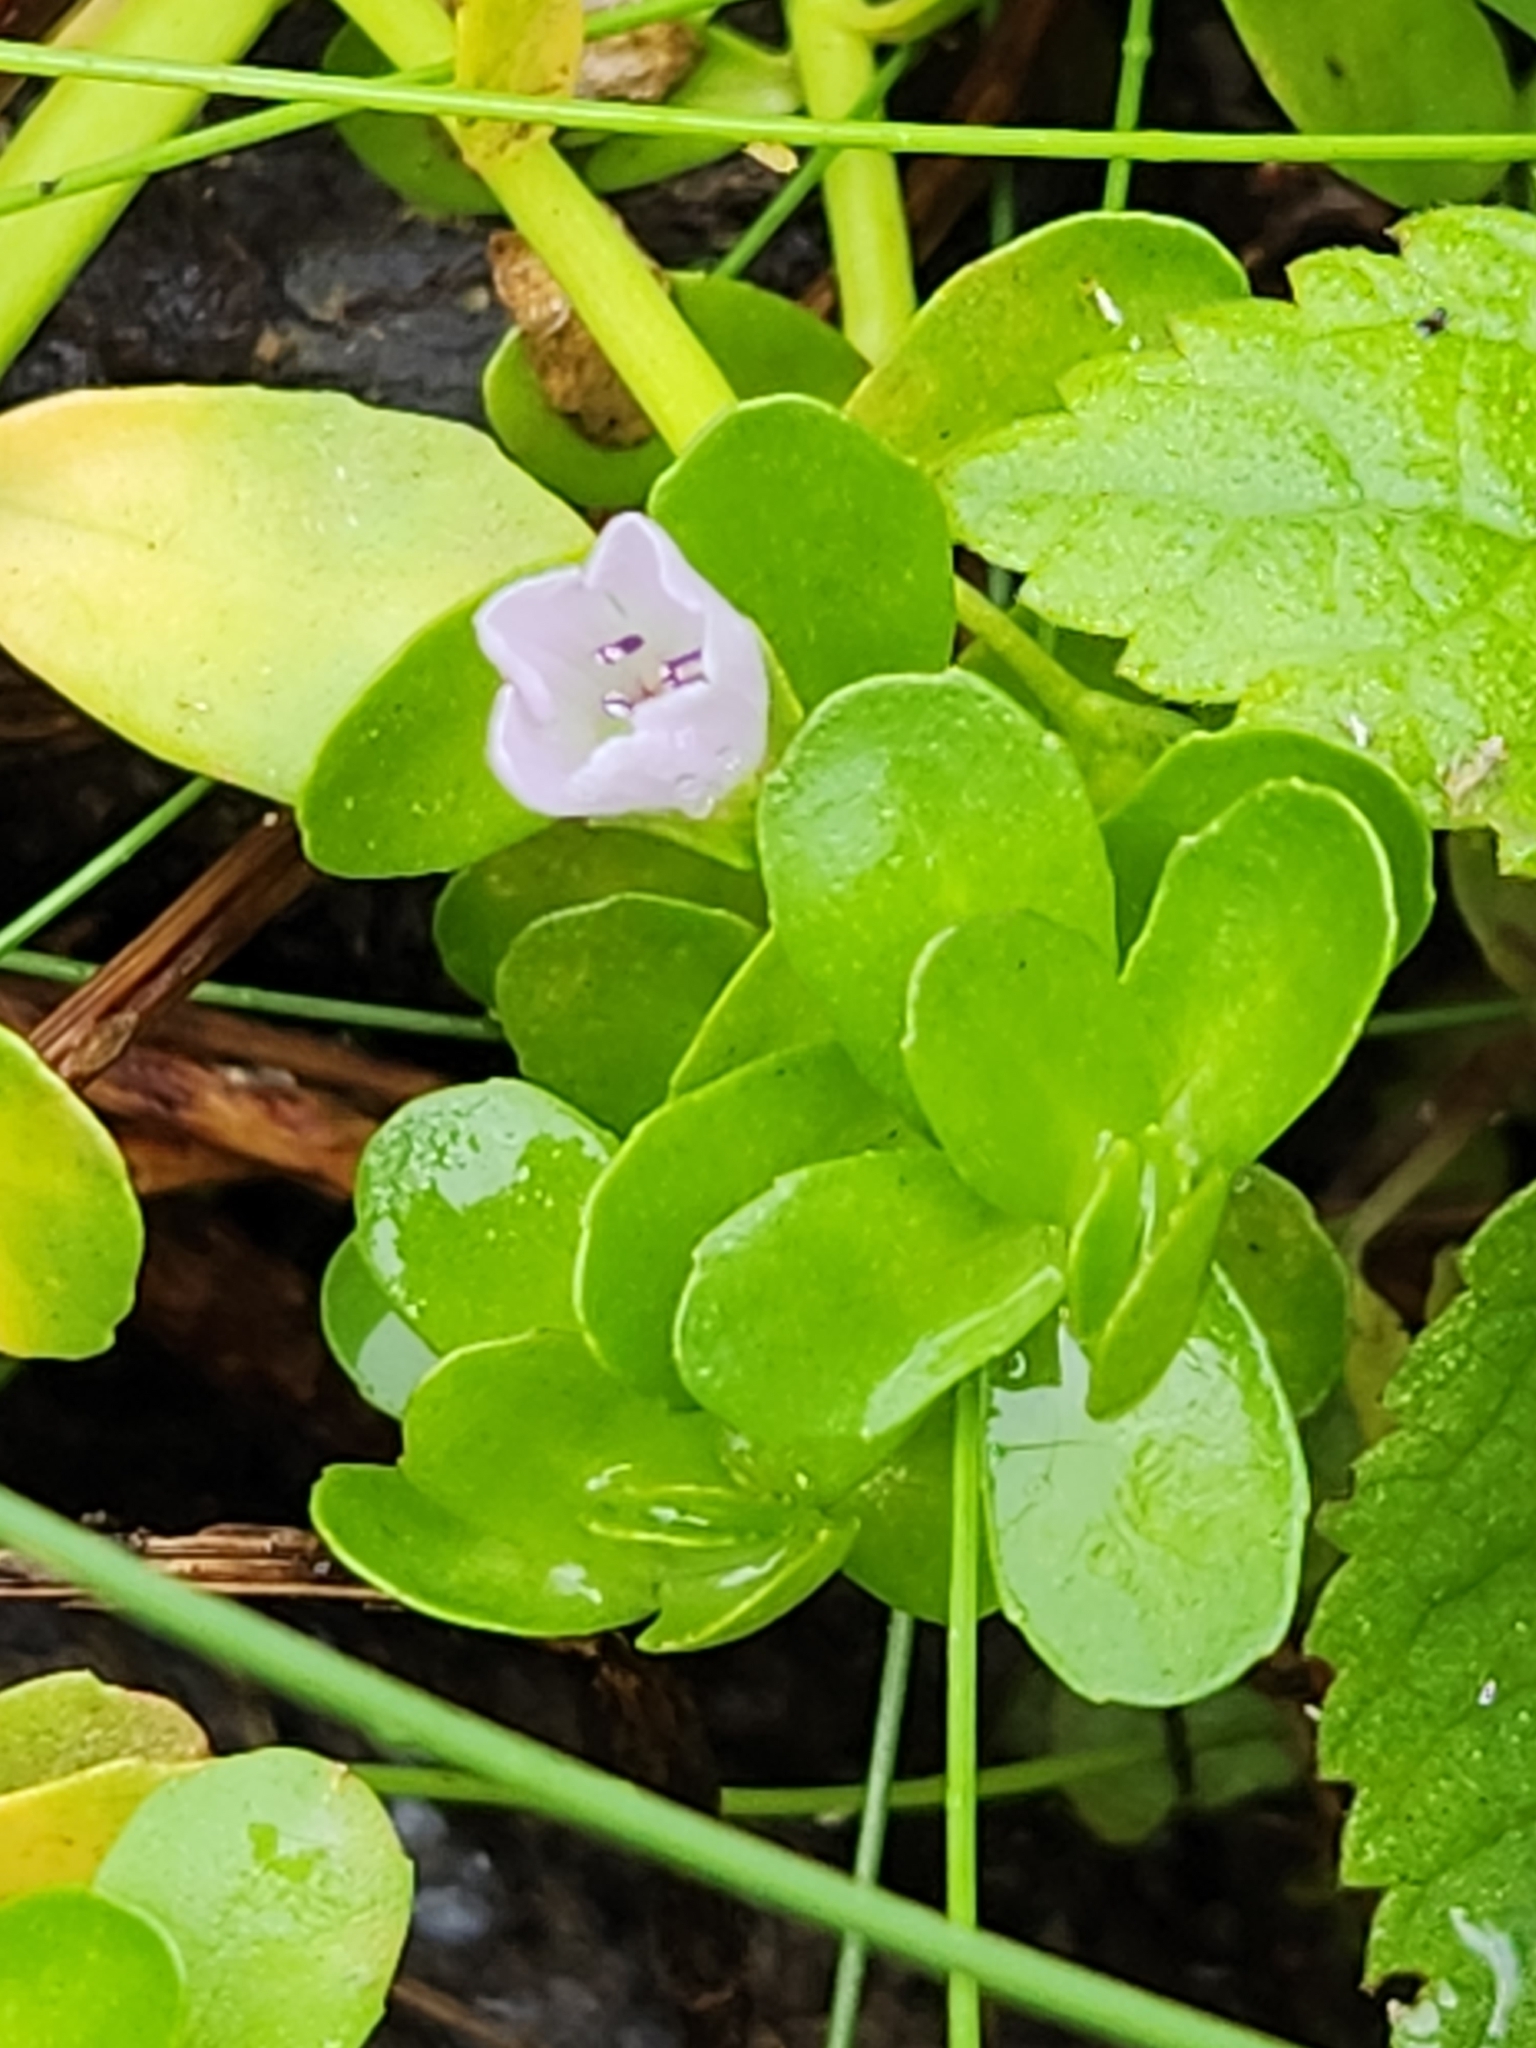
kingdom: Plantae
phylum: Tracheophyta
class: Magnoliopsida
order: Lamiales
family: Plantaginaceae
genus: Bacopa
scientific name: Bacopa monnieri
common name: Indian-pennywort
